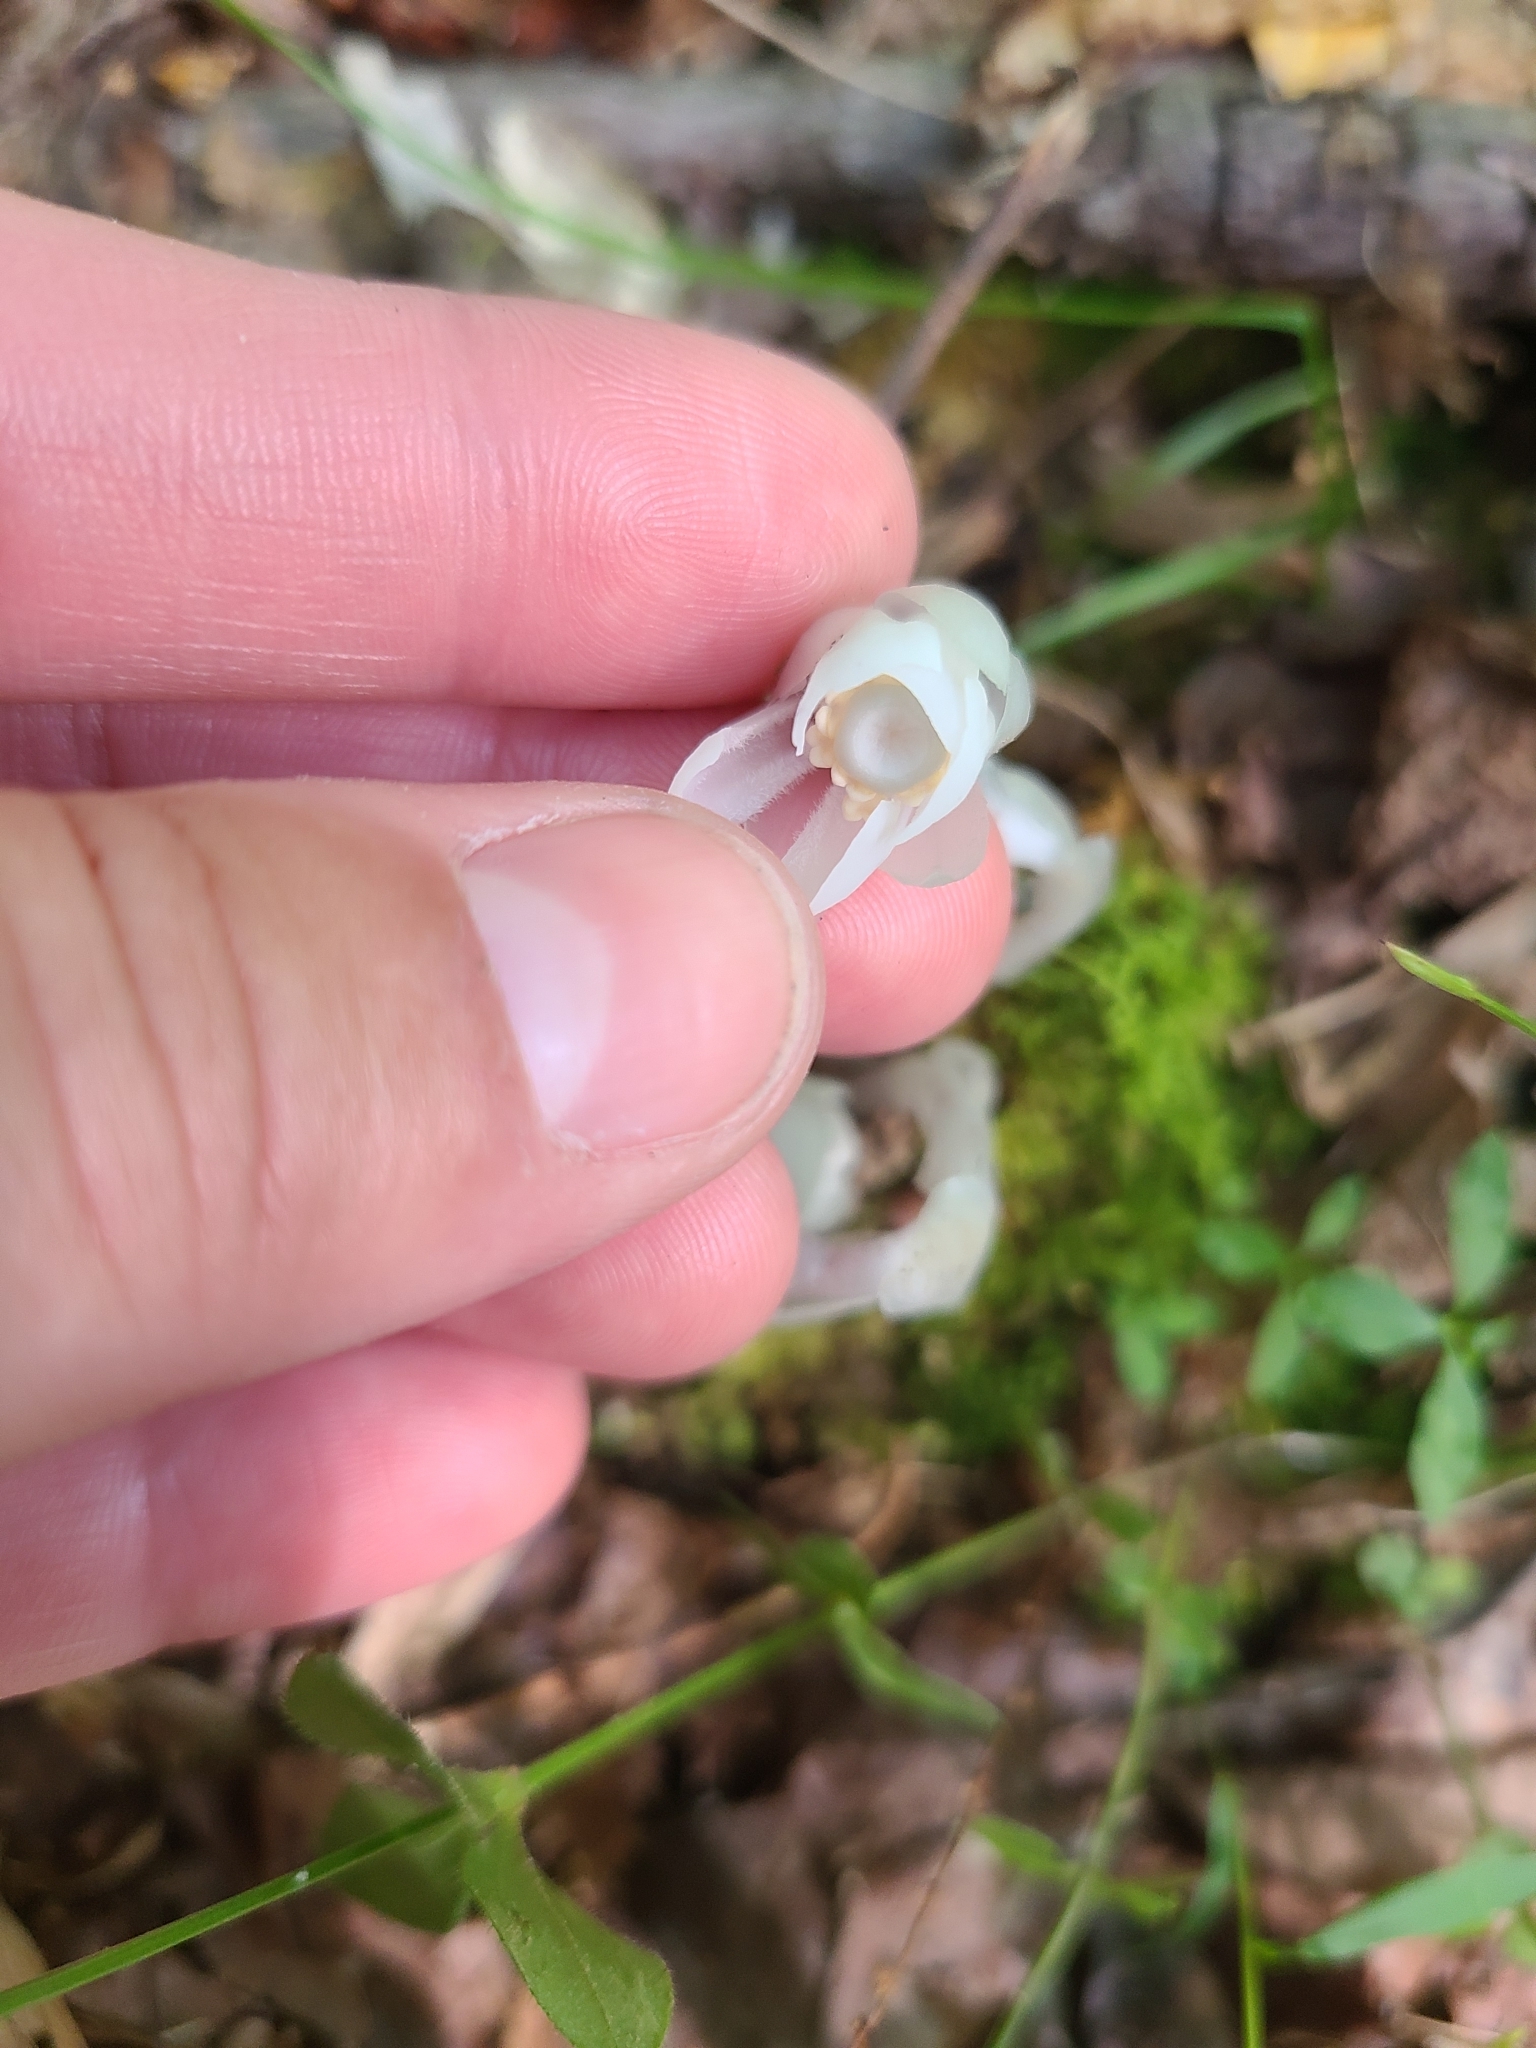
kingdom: Plantae
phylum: Tracheophyta
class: Magnoliopsida
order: Ericales
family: Ericaceae
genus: Monotropa
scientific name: Monotropa uniflora
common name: Convulsion root
